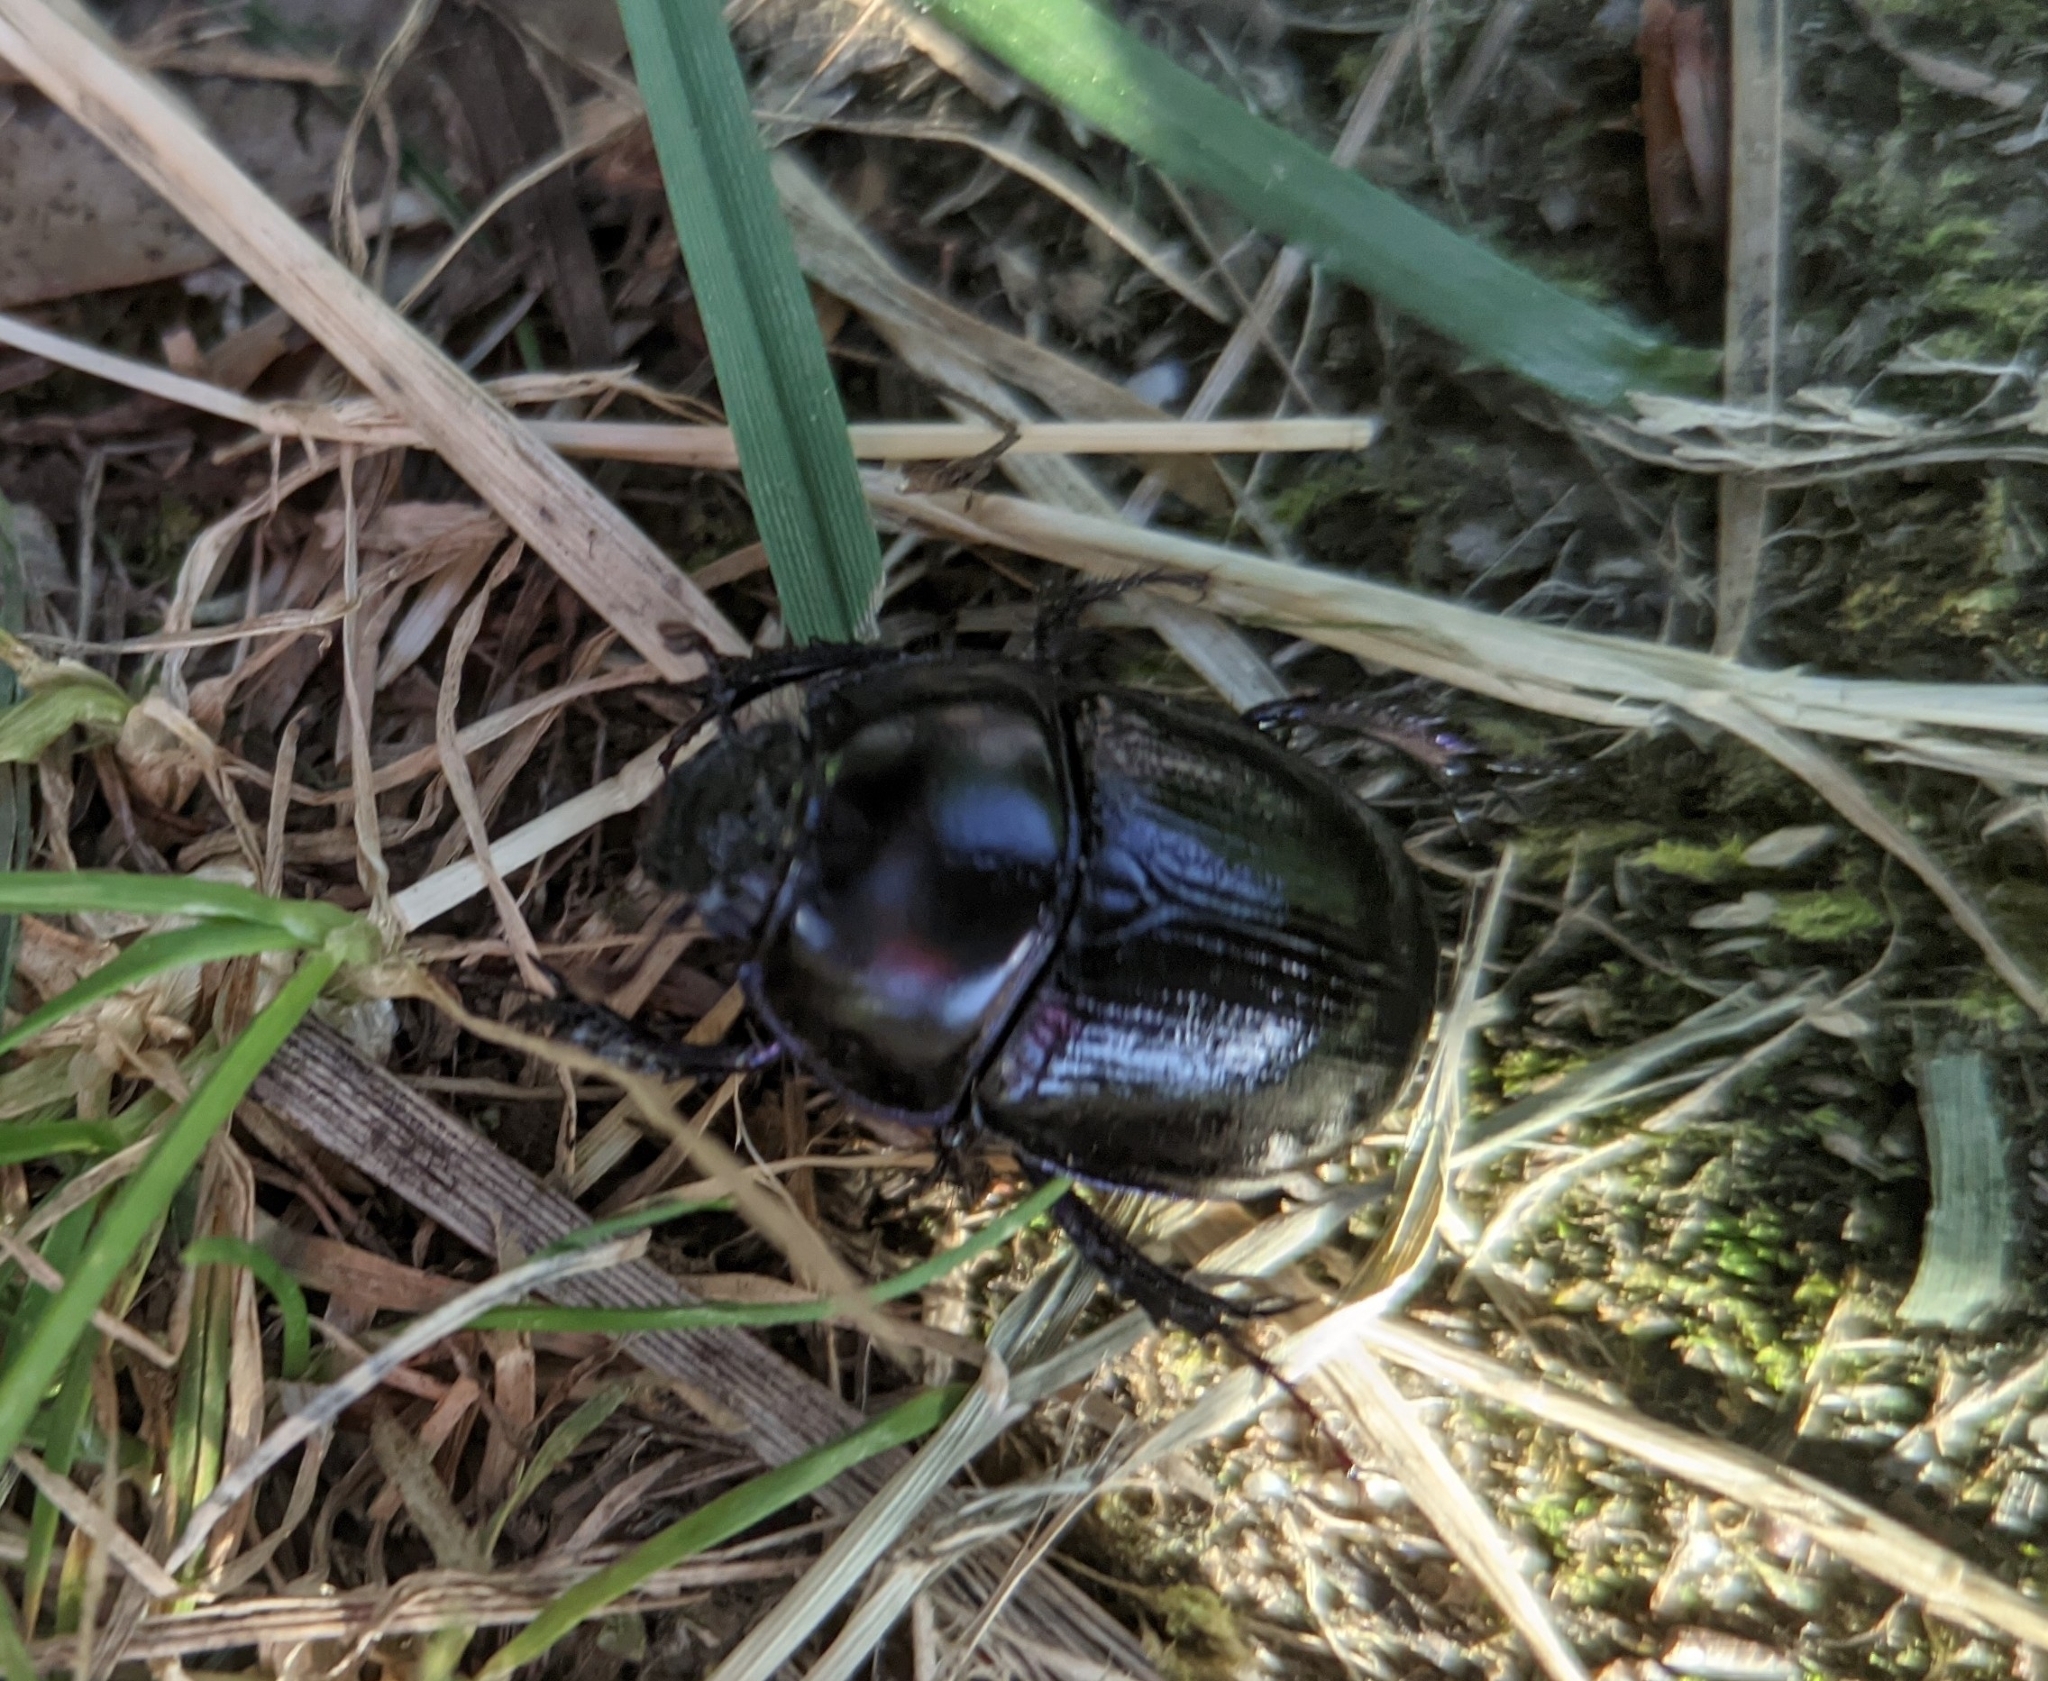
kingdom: Animalia
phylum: Arthropoda
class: Insecta
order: Coleoptera
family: Geotrupidae
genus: Anoplotrupes
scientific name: Anoplotrupes stercorosus
